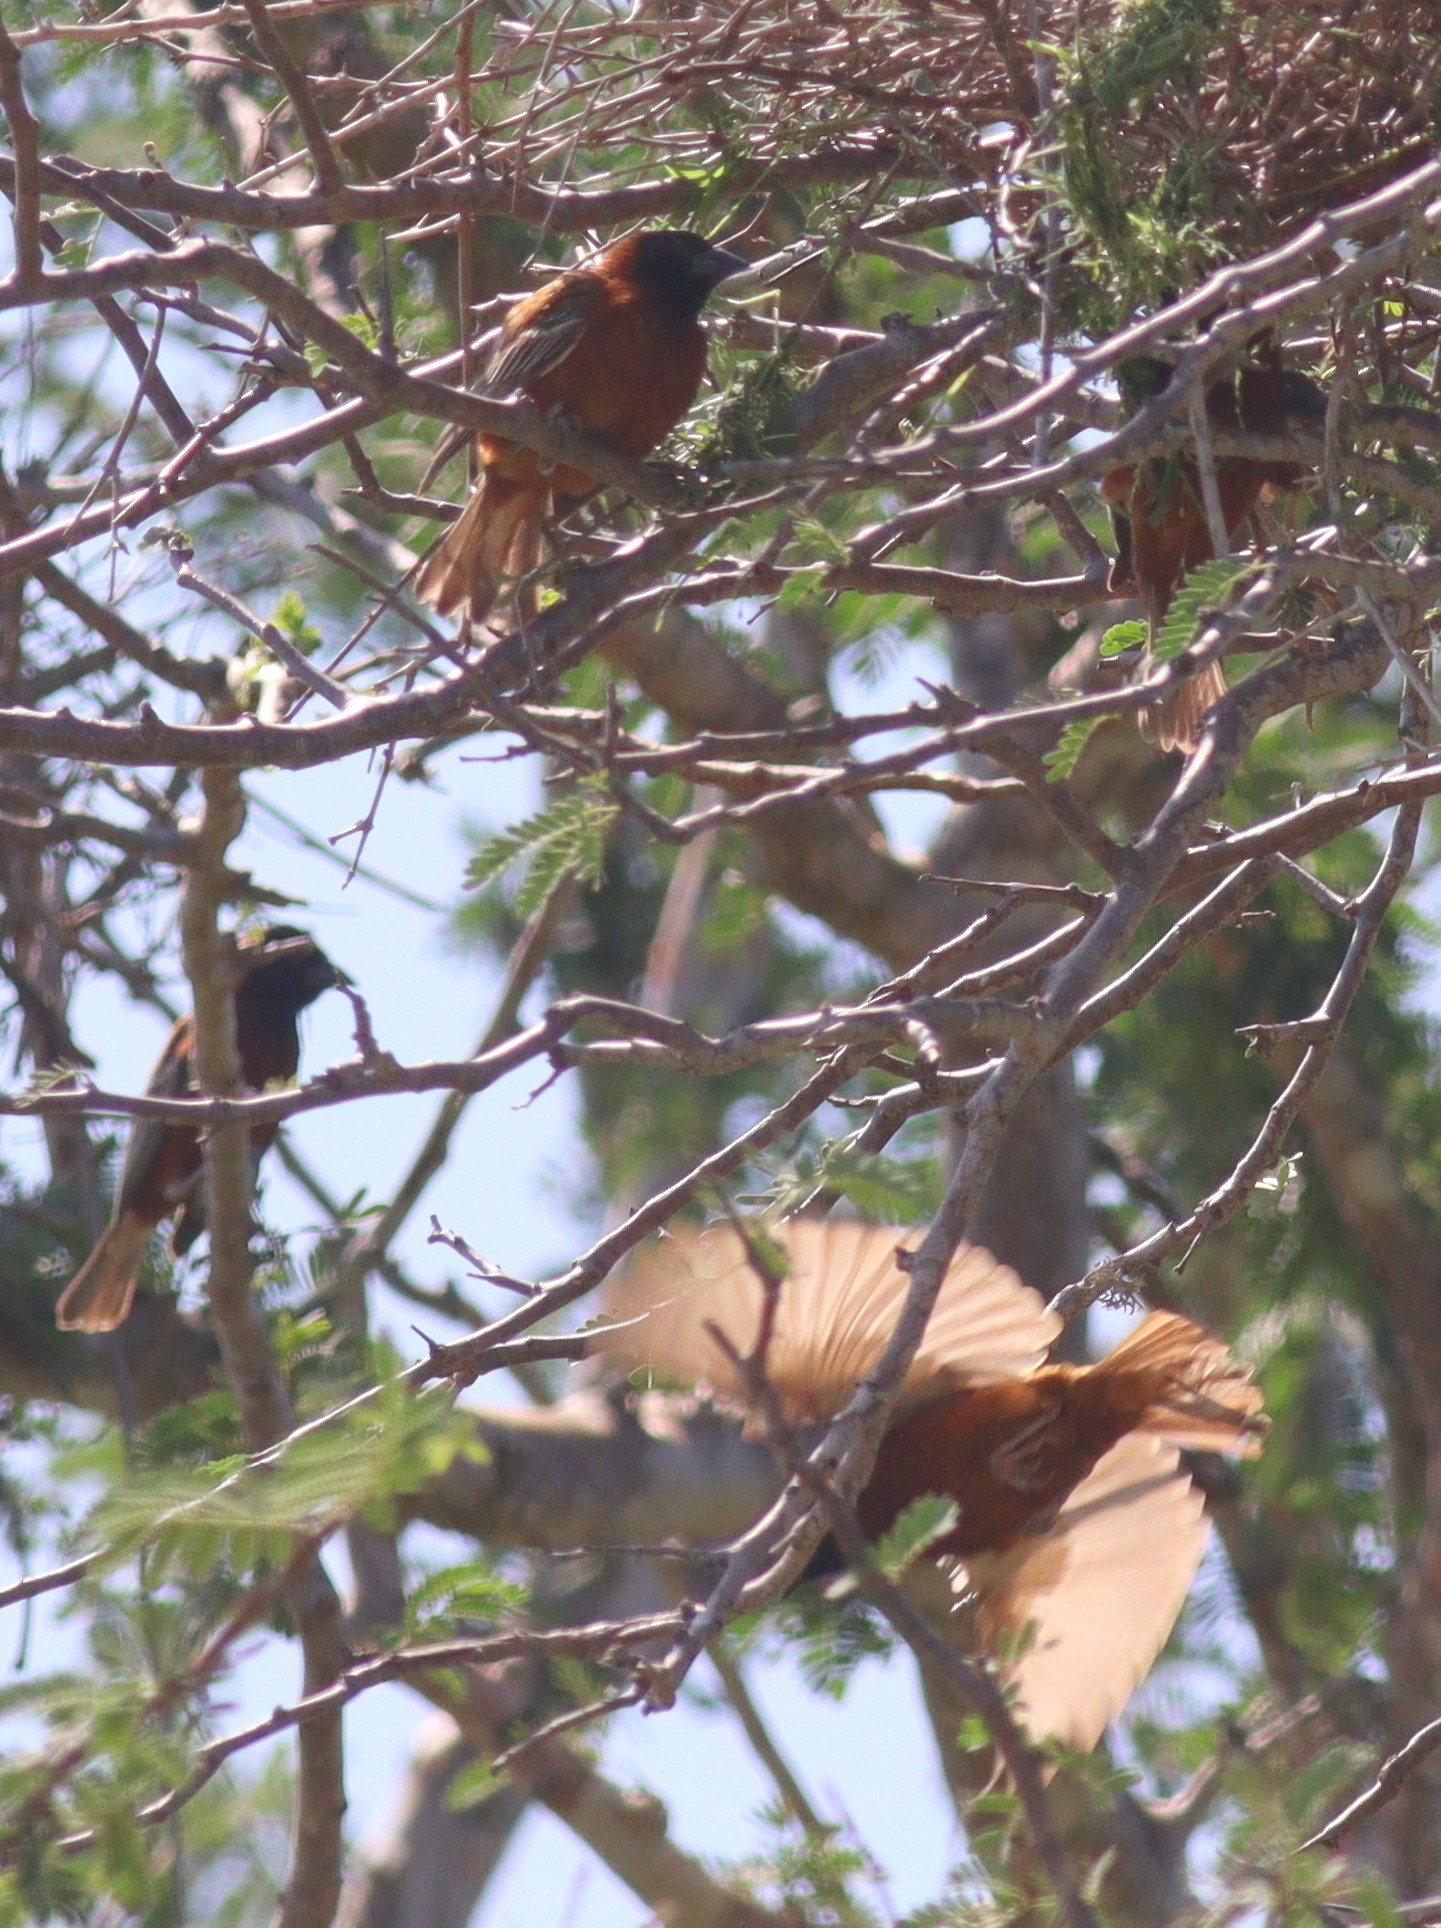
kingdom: Animalia
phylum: Chordata
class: Aves
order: Passeriformes
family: Ploceidae
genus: Ploceus
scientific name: Ploceus rubiginosus
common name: Chestnut weaver
